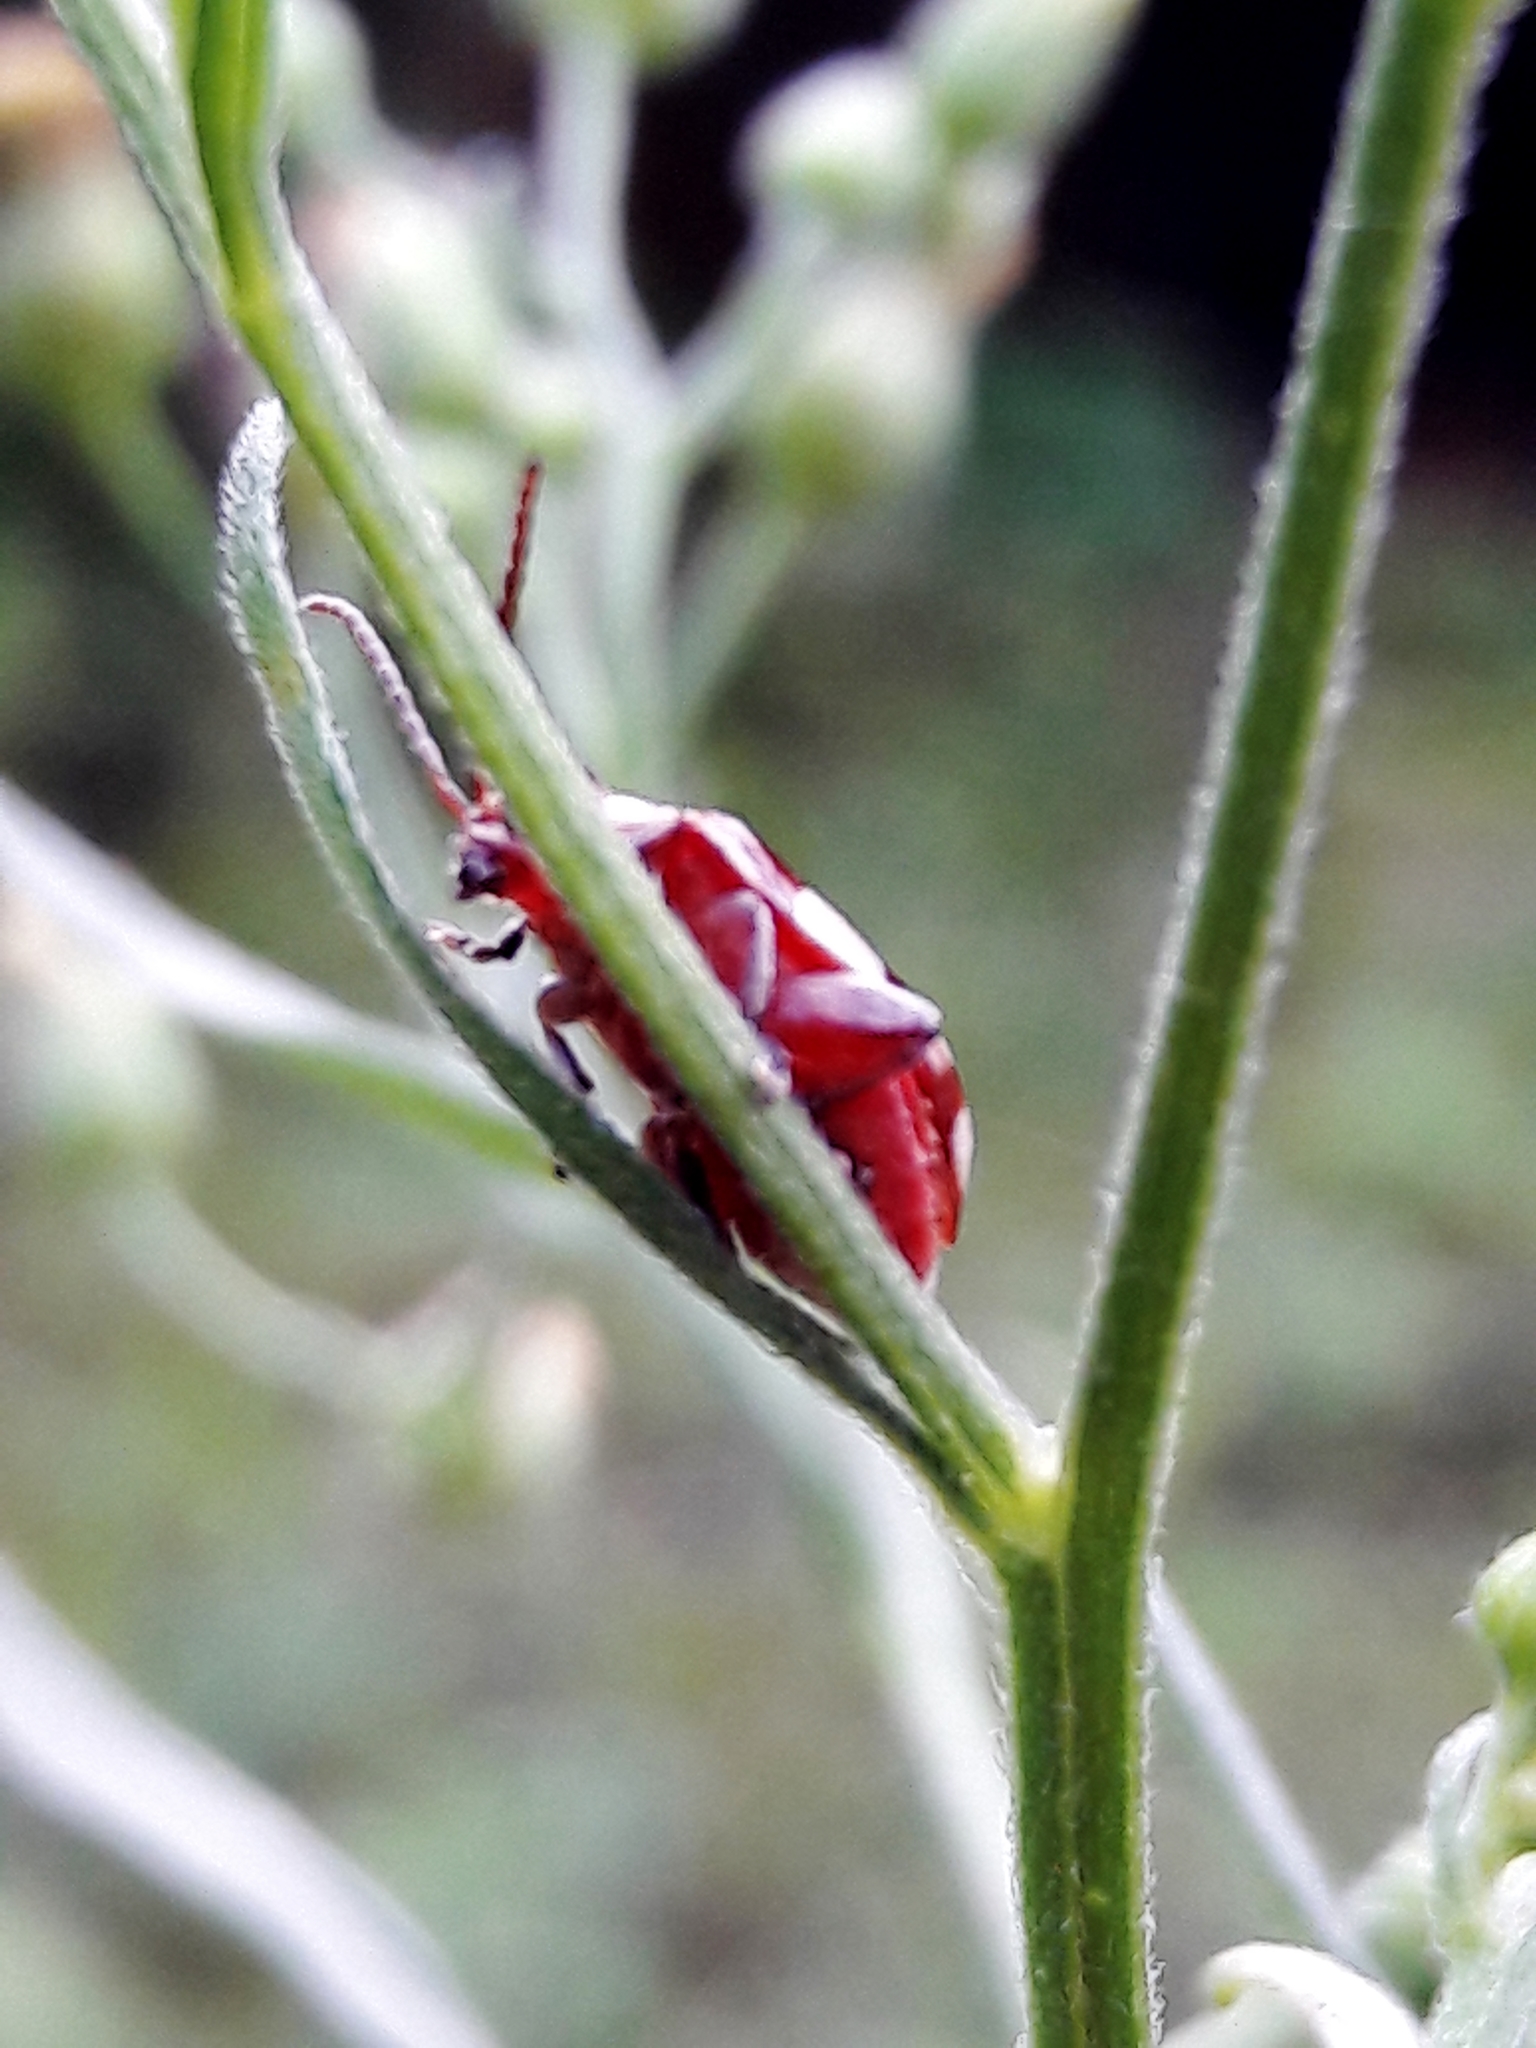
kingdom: Animalia
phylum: Arthropoda
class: Insecta
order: Coleoptera
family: Chrysomelidae
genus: Omophoita
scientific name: Omophoita
